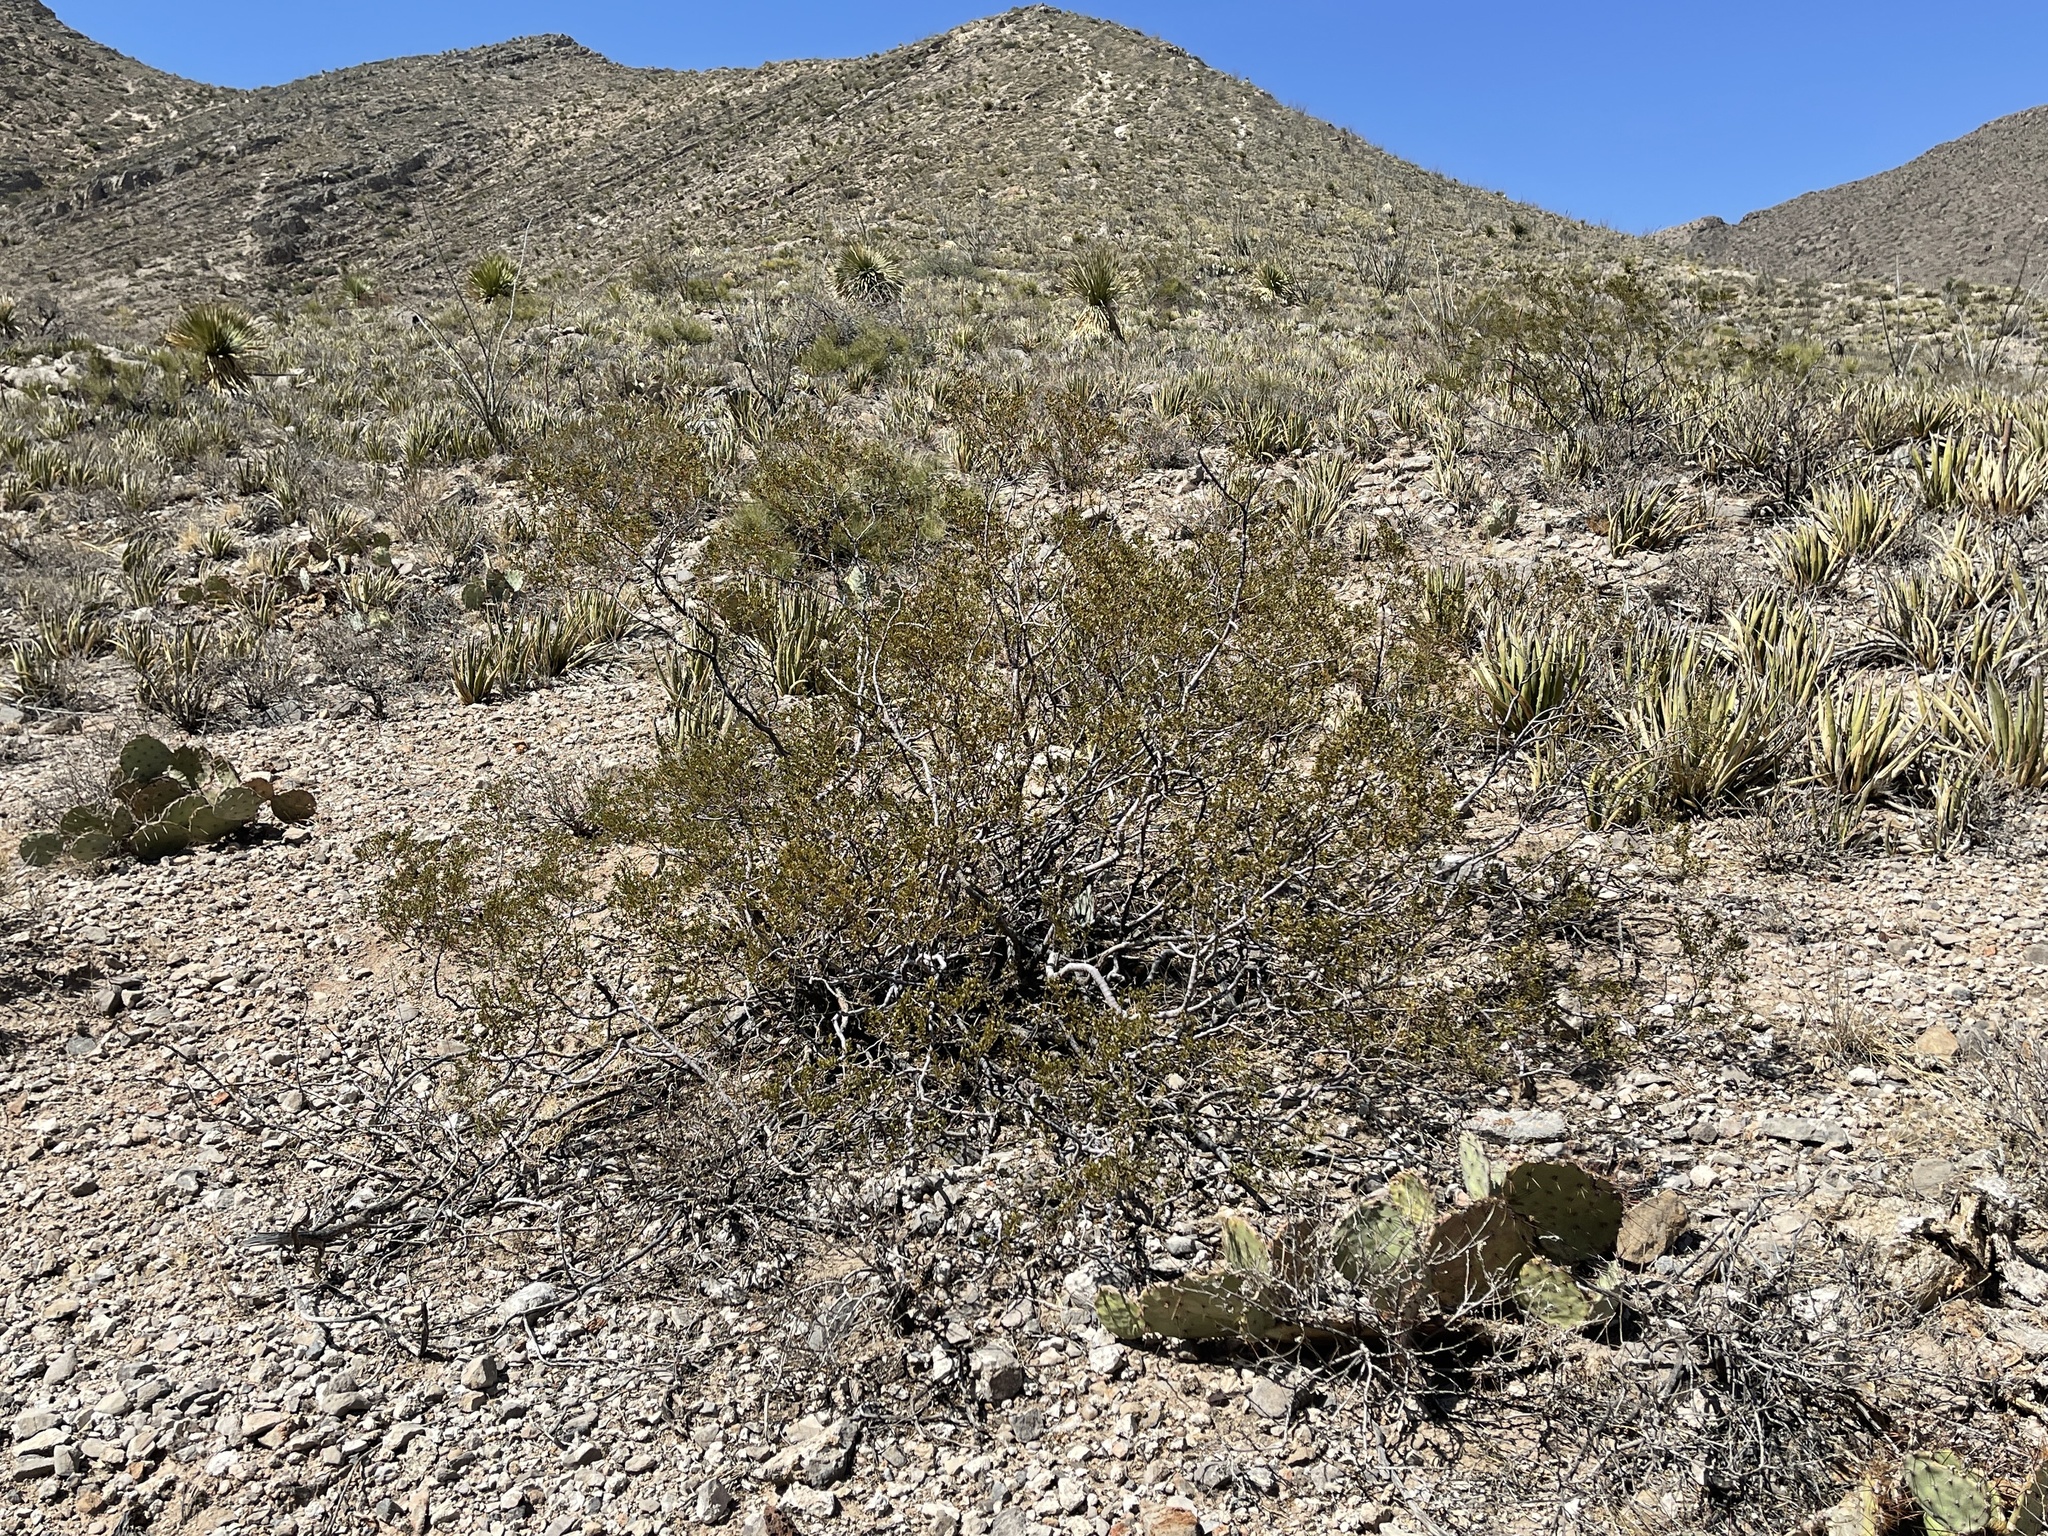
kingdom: Plantae
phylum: Tracheophyta
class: Magnoliopsida
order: Zygophyllales
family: Zygophyllaceae
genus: Larrea
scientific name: Larrea tridentata
